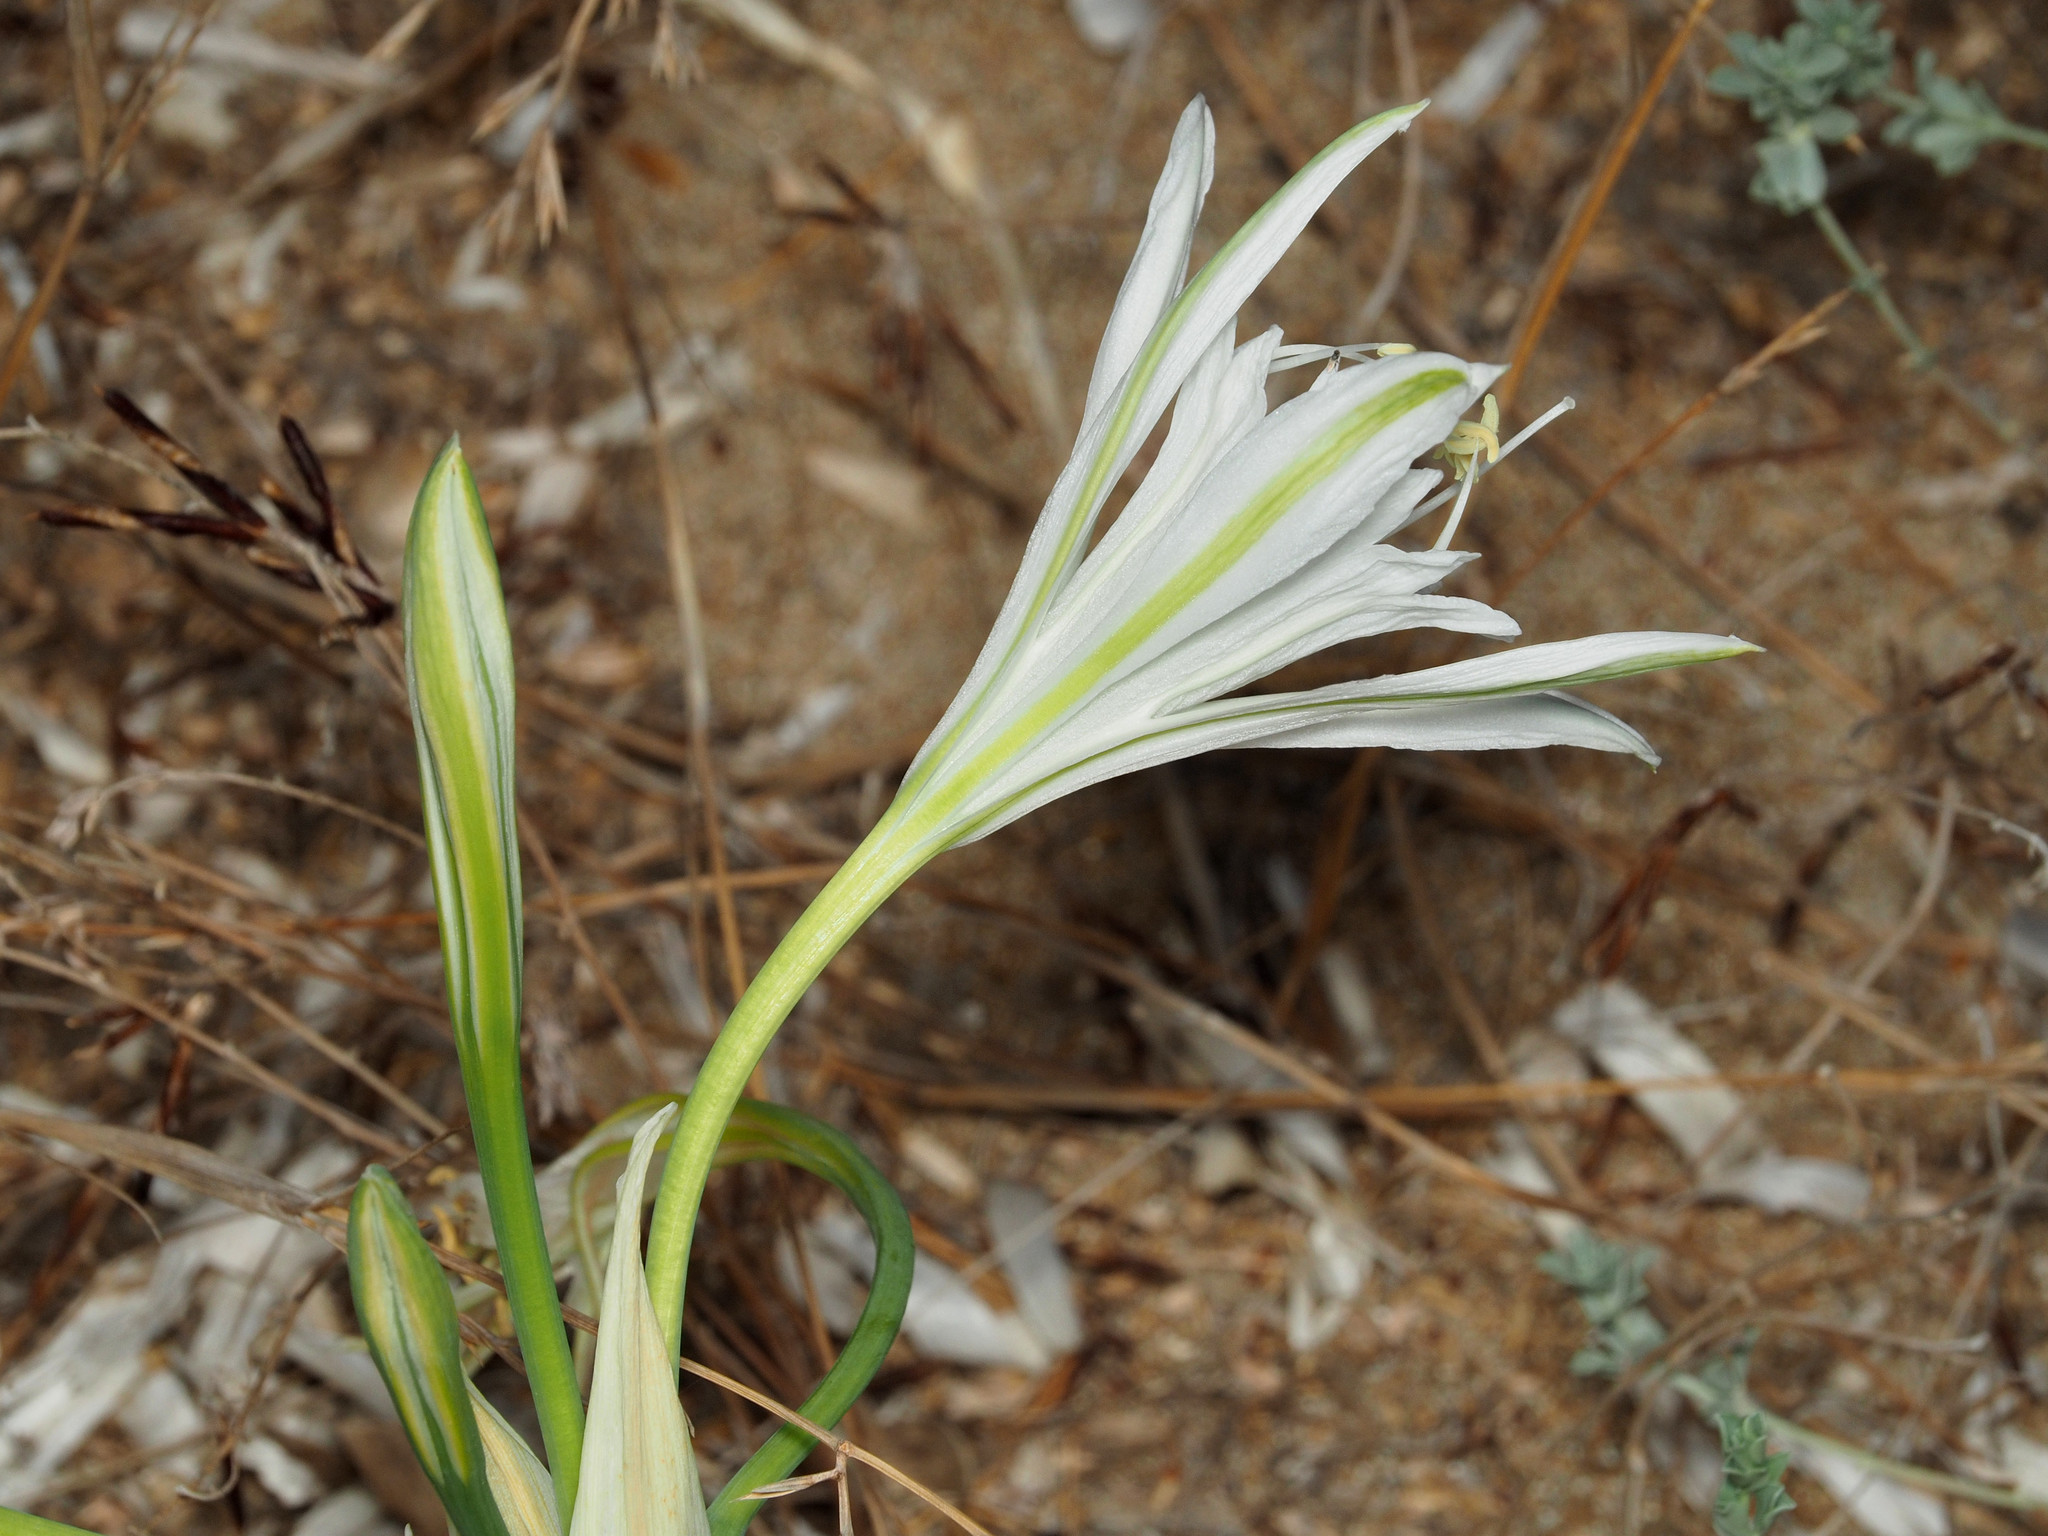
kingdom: Plantae
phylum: Tracheophyta
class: Liliopsida
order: Asparagales
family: Amaryllidaceae
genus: Pancratium
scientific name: Pancratium maritimum
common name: Sea-daffodil
